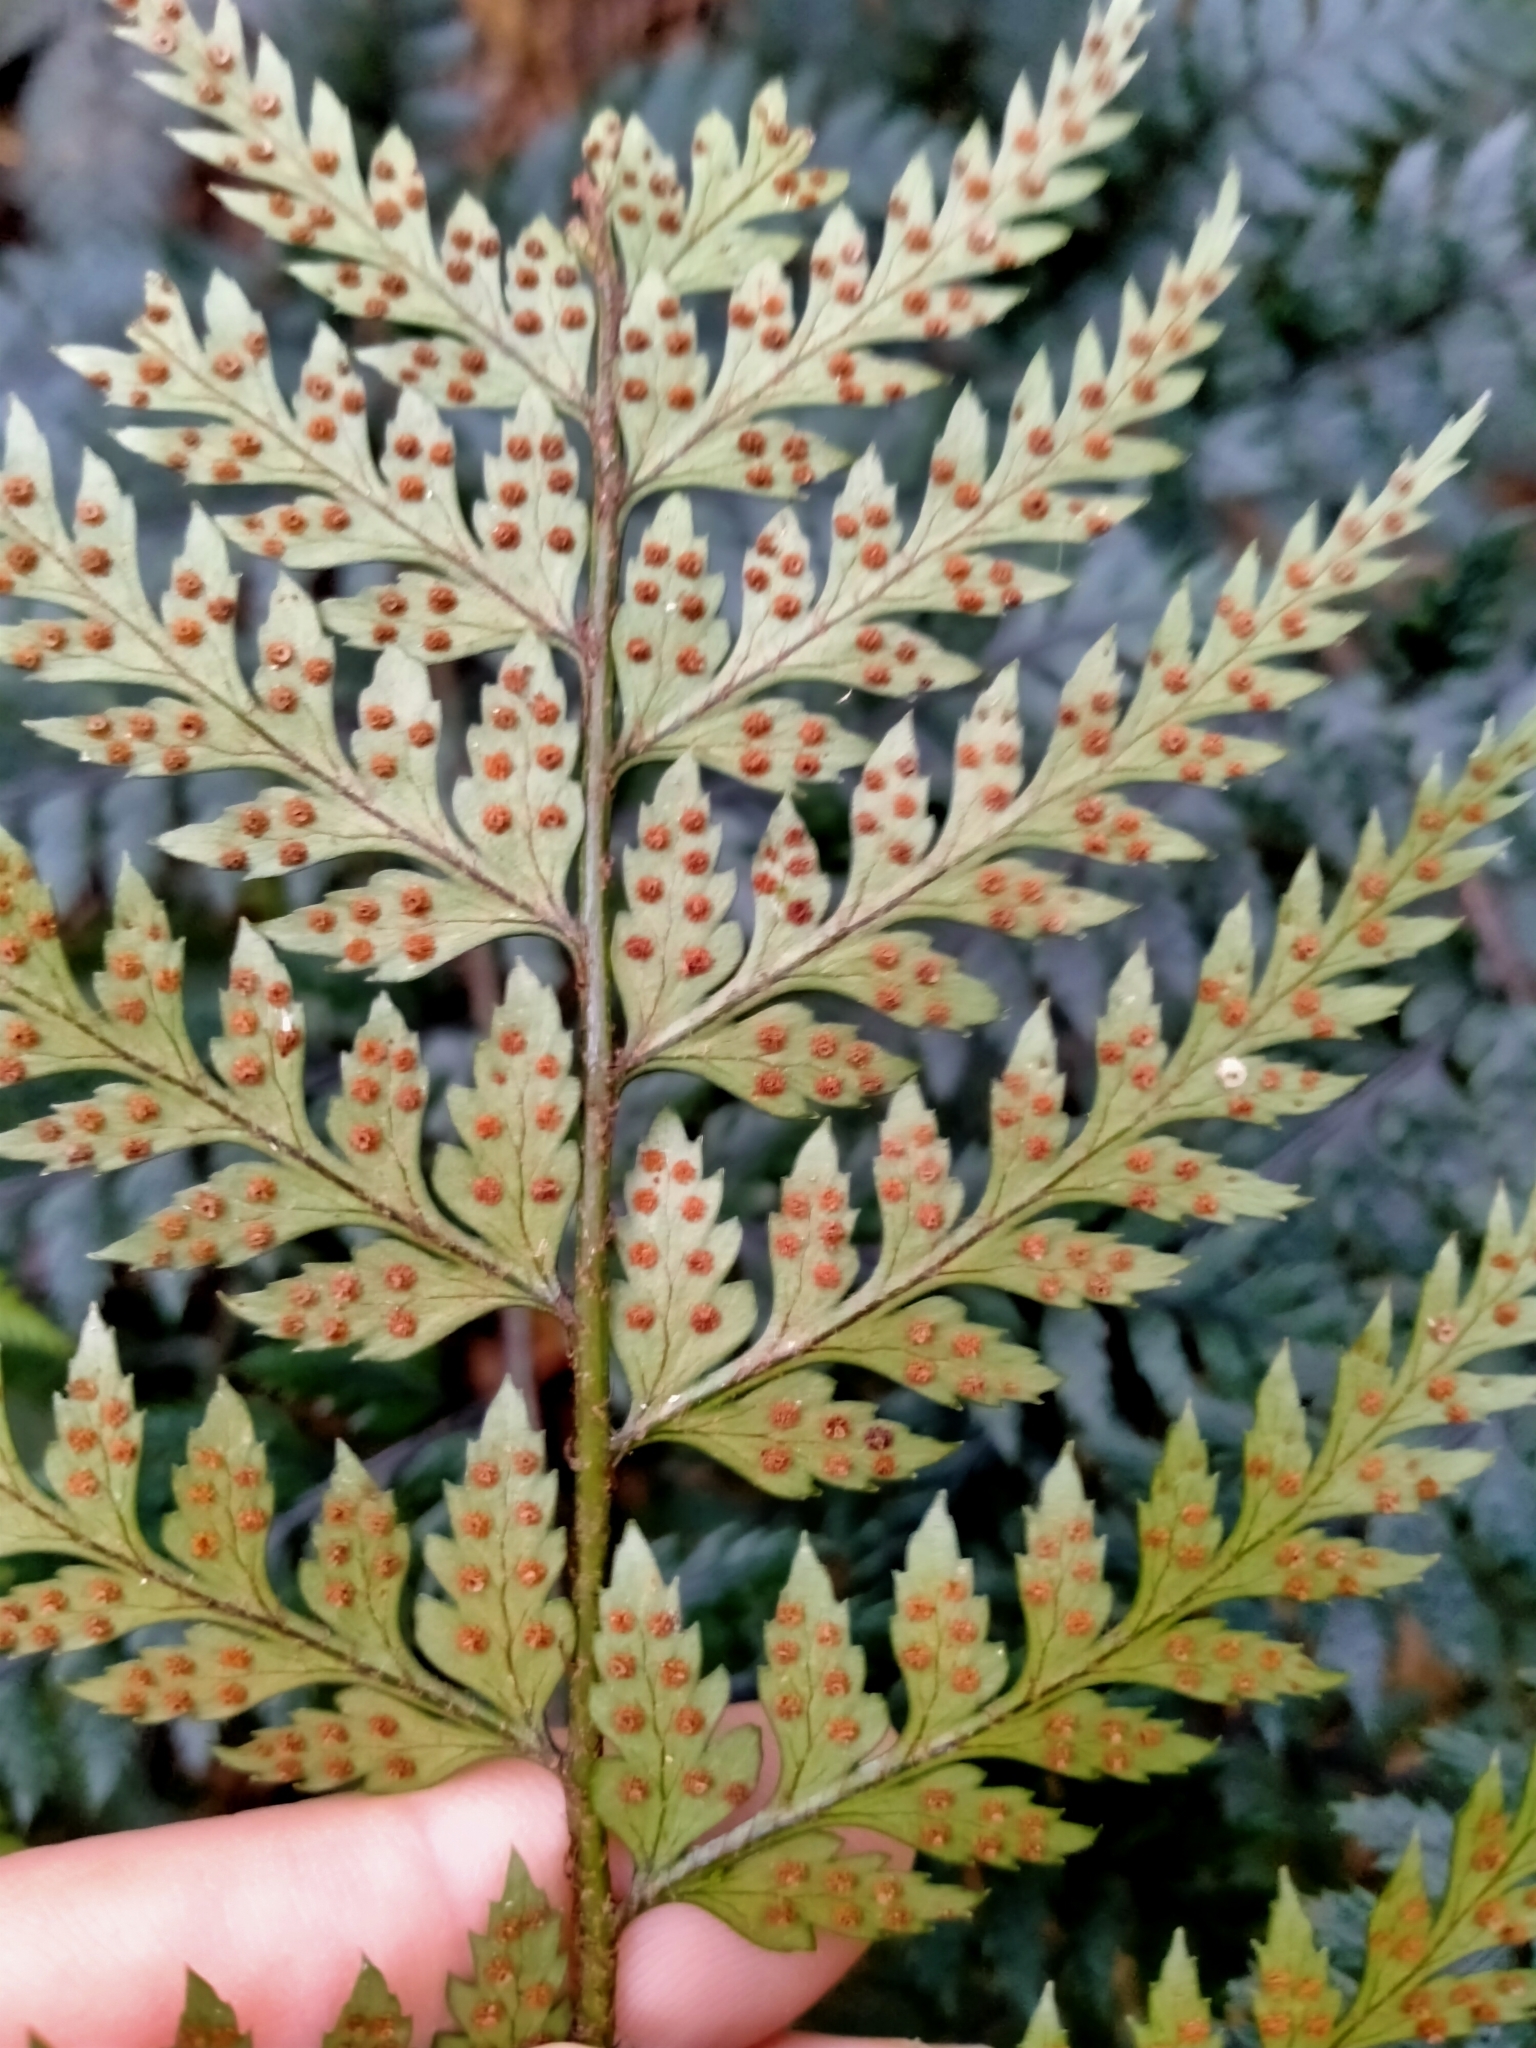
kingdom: Plantae
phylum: Tracheophyta
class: Polypodiopsida
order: Polypodiales
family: Dryopteridaceae
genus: Polystichum
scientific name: Polystichum neozelandicum
